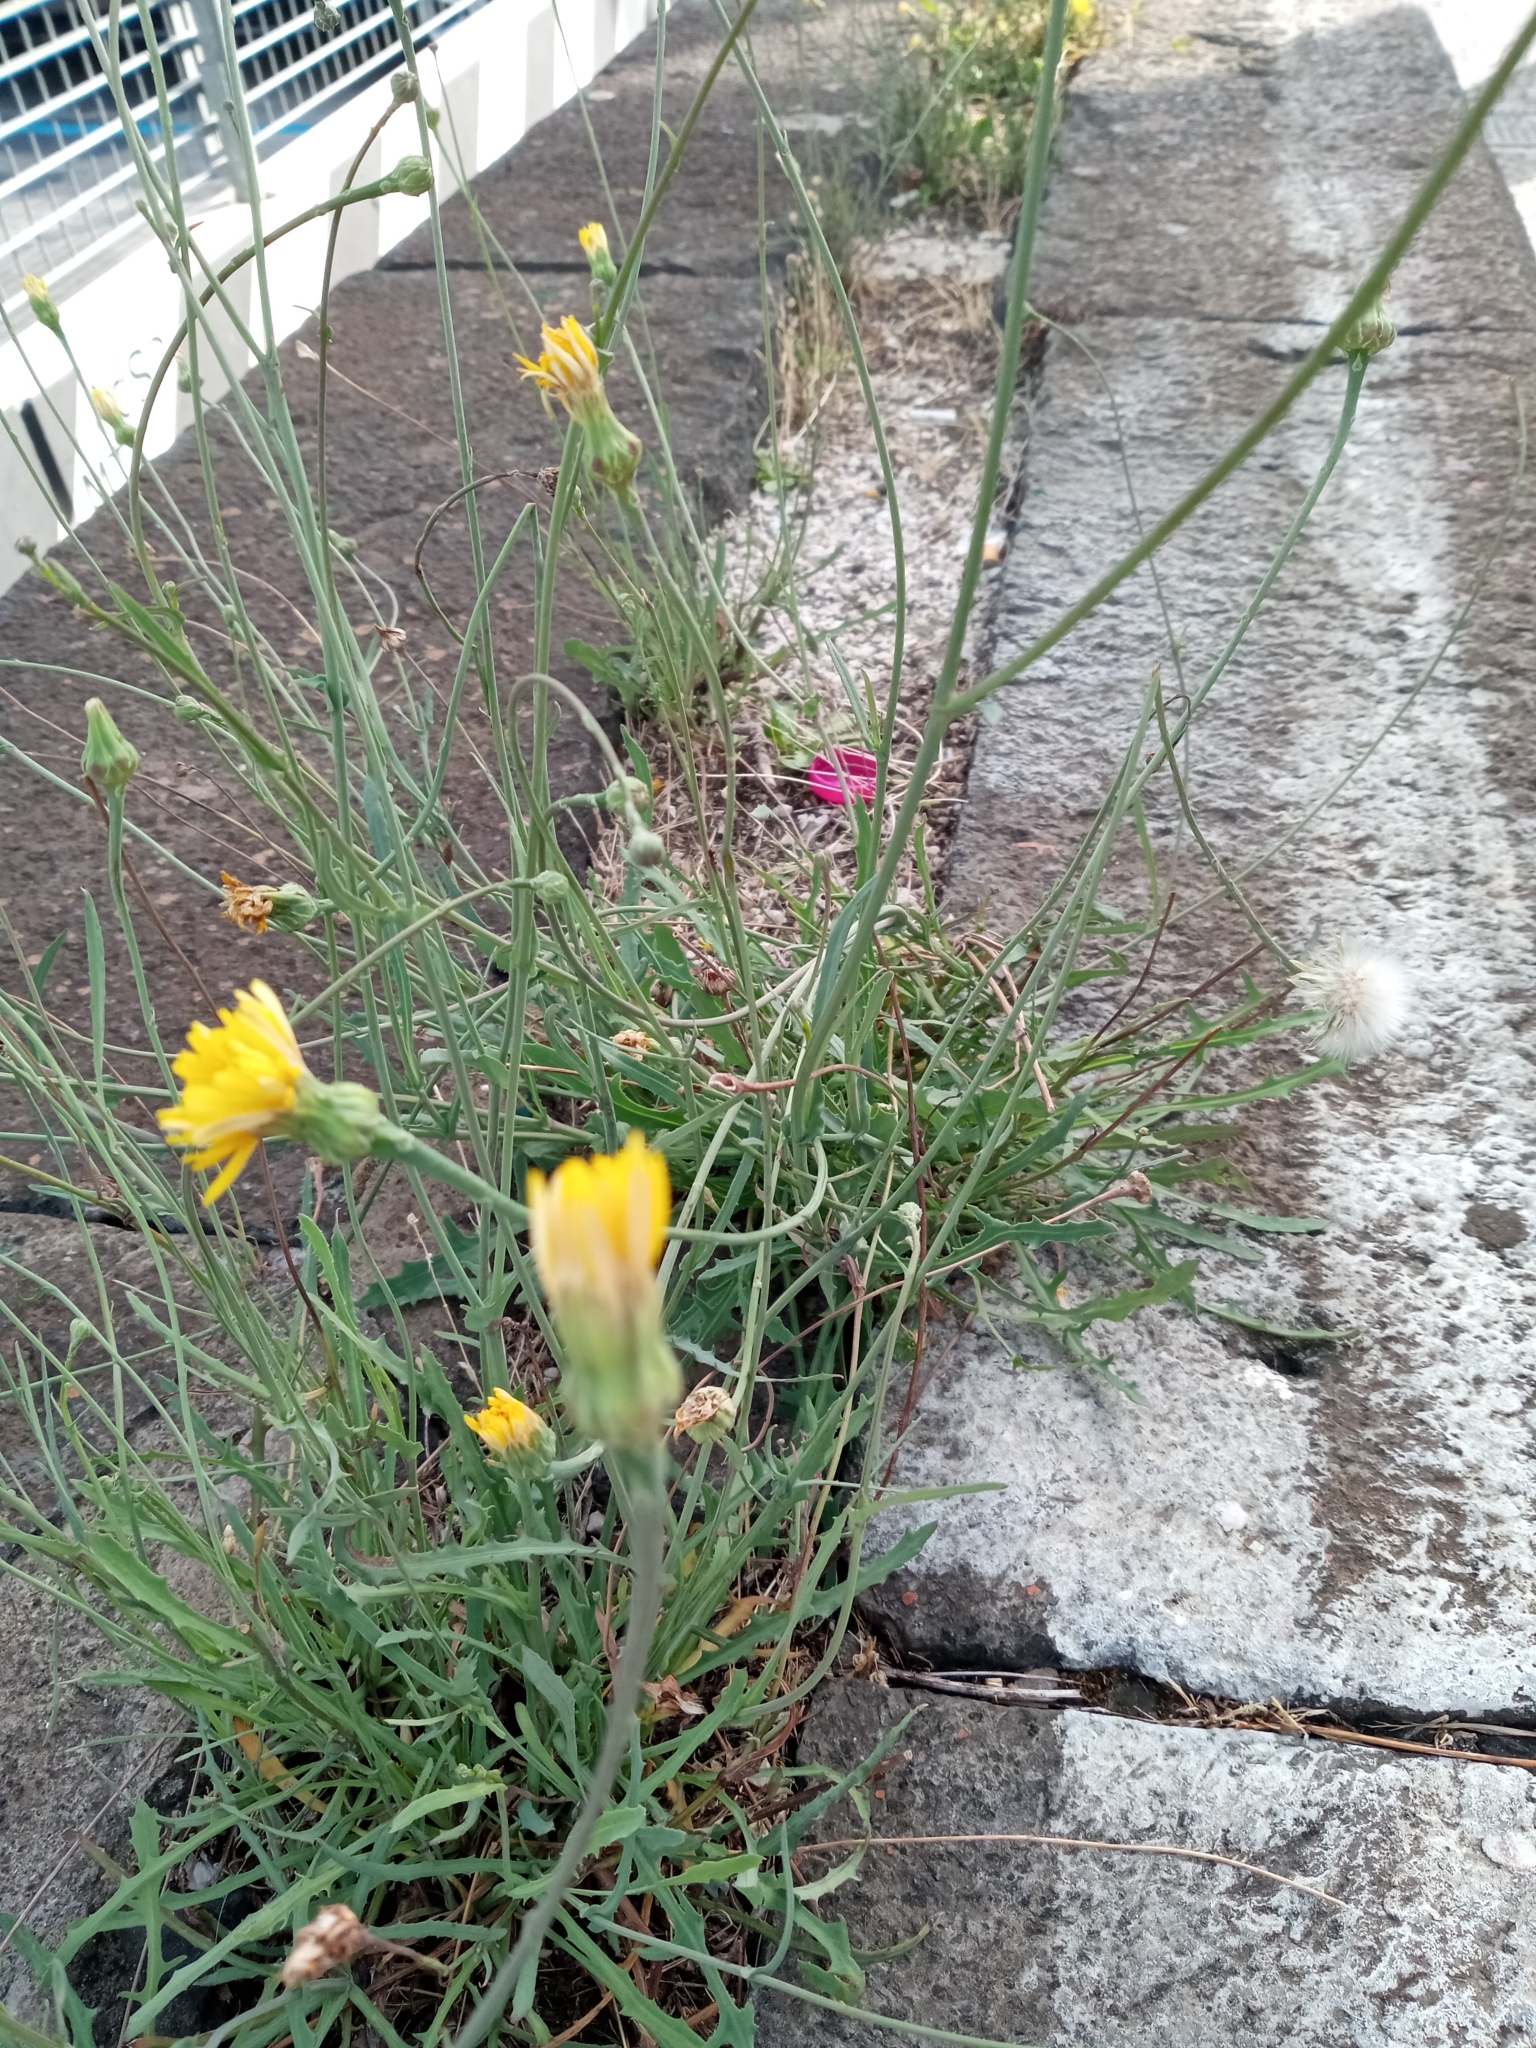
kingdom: Plantae
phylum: Tracheophyta
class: Magnoliopsida
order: Asterales
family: Asteraceae
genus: Reichardia
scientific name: Reichardia picroides
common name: Common brighteyes
